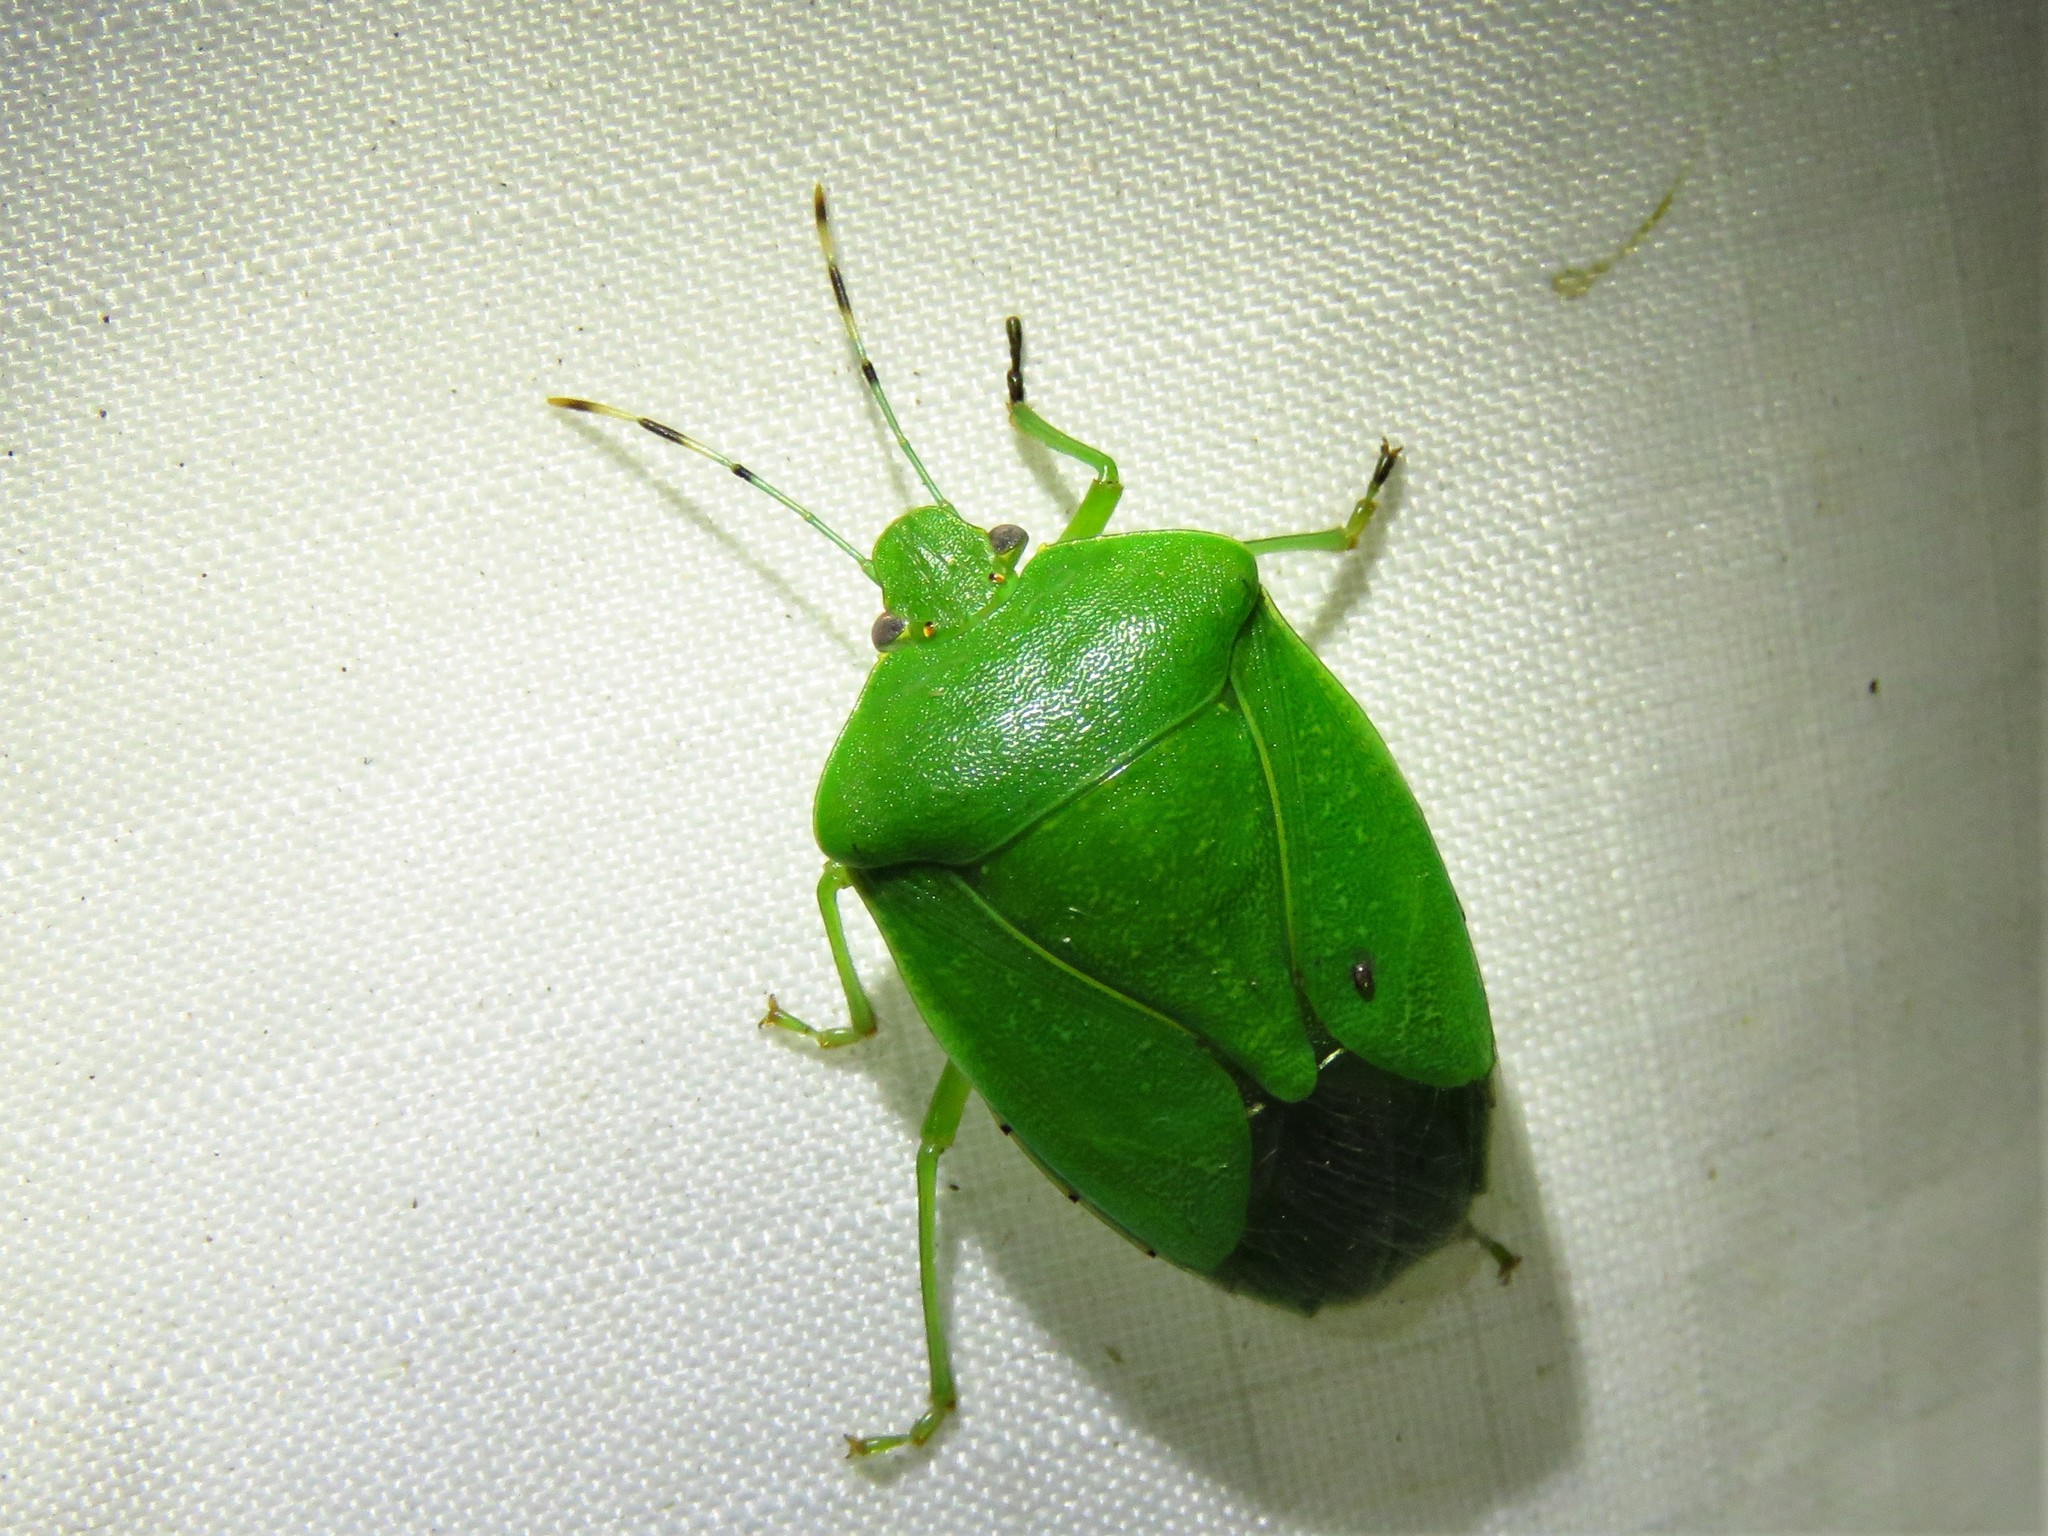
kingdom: Animalia
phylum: Arthropoda
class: Insecta
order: Hemiptera
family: Pentatomidae
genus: Chinavia
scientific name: Chinavia hilaris
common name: Green stink bug
